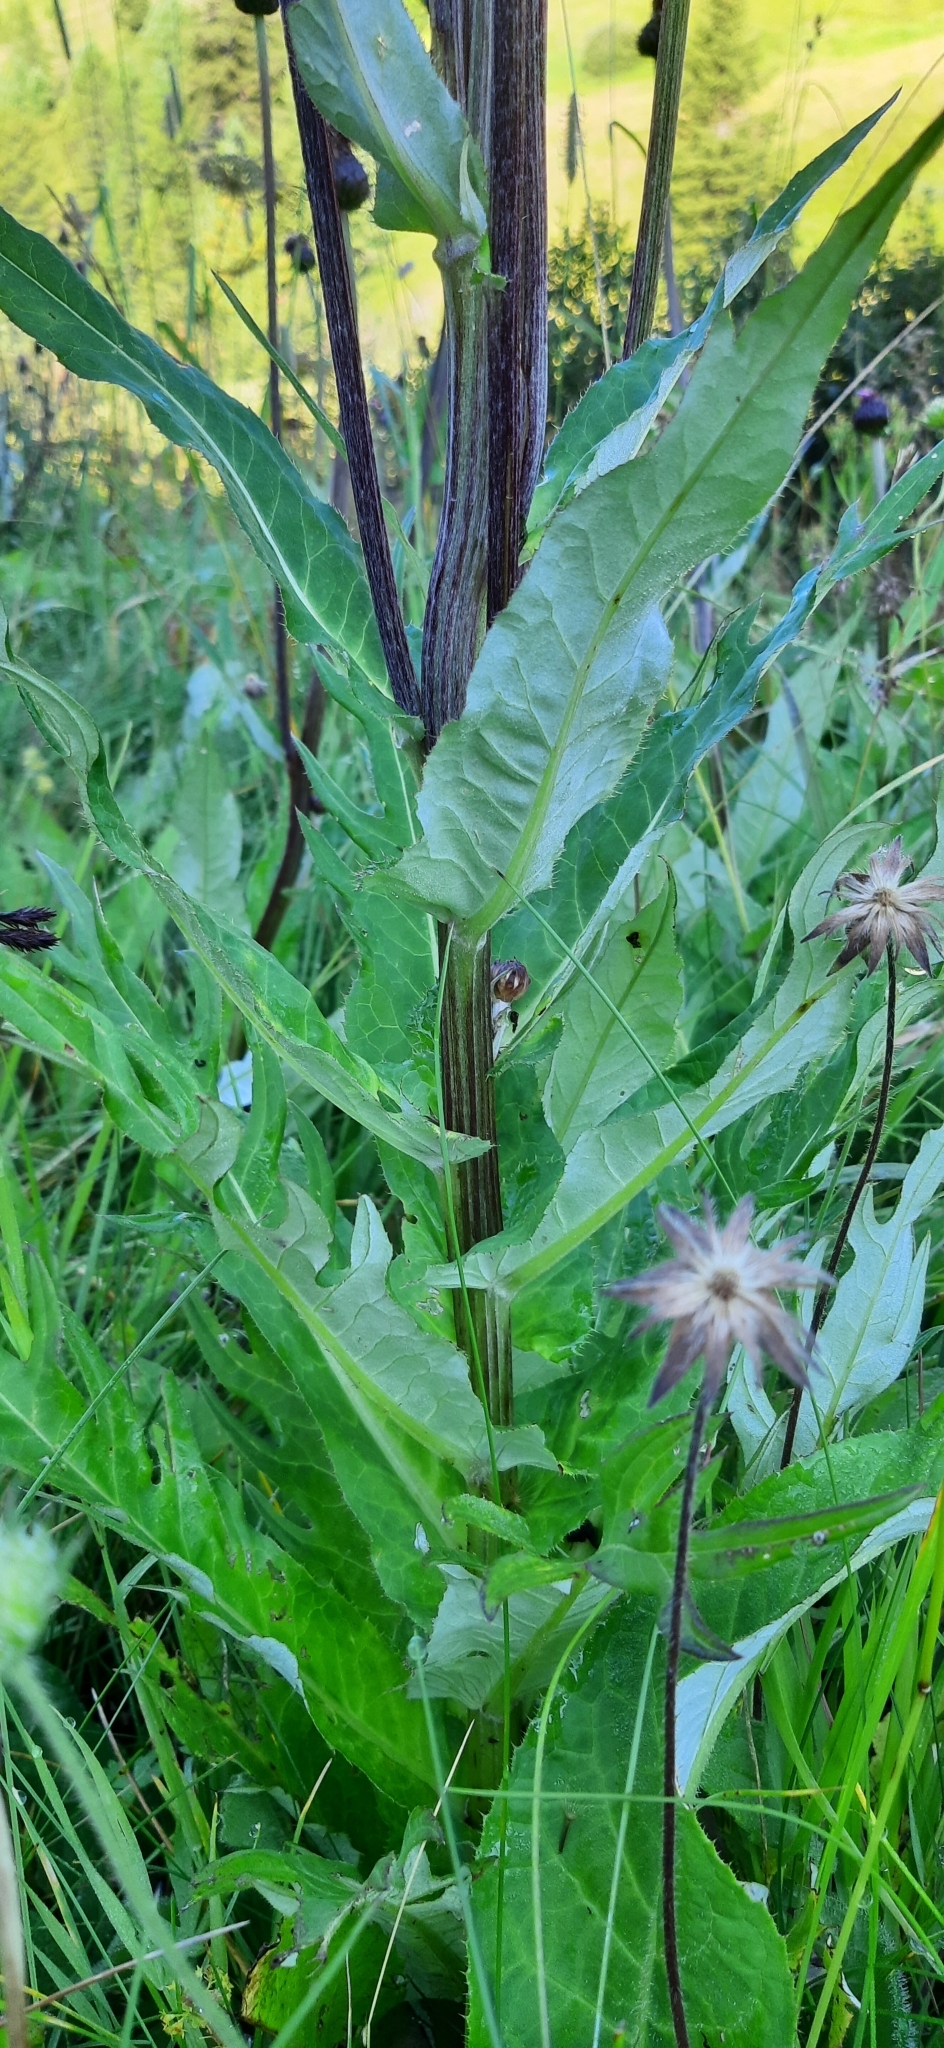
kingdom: Plantae
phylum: Tracheophyta
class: Magnoliopsida
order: Asterales
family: Asteraceae
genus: Cirsium
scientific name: Cirsium heterophyllum
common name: Melancholy thistle
